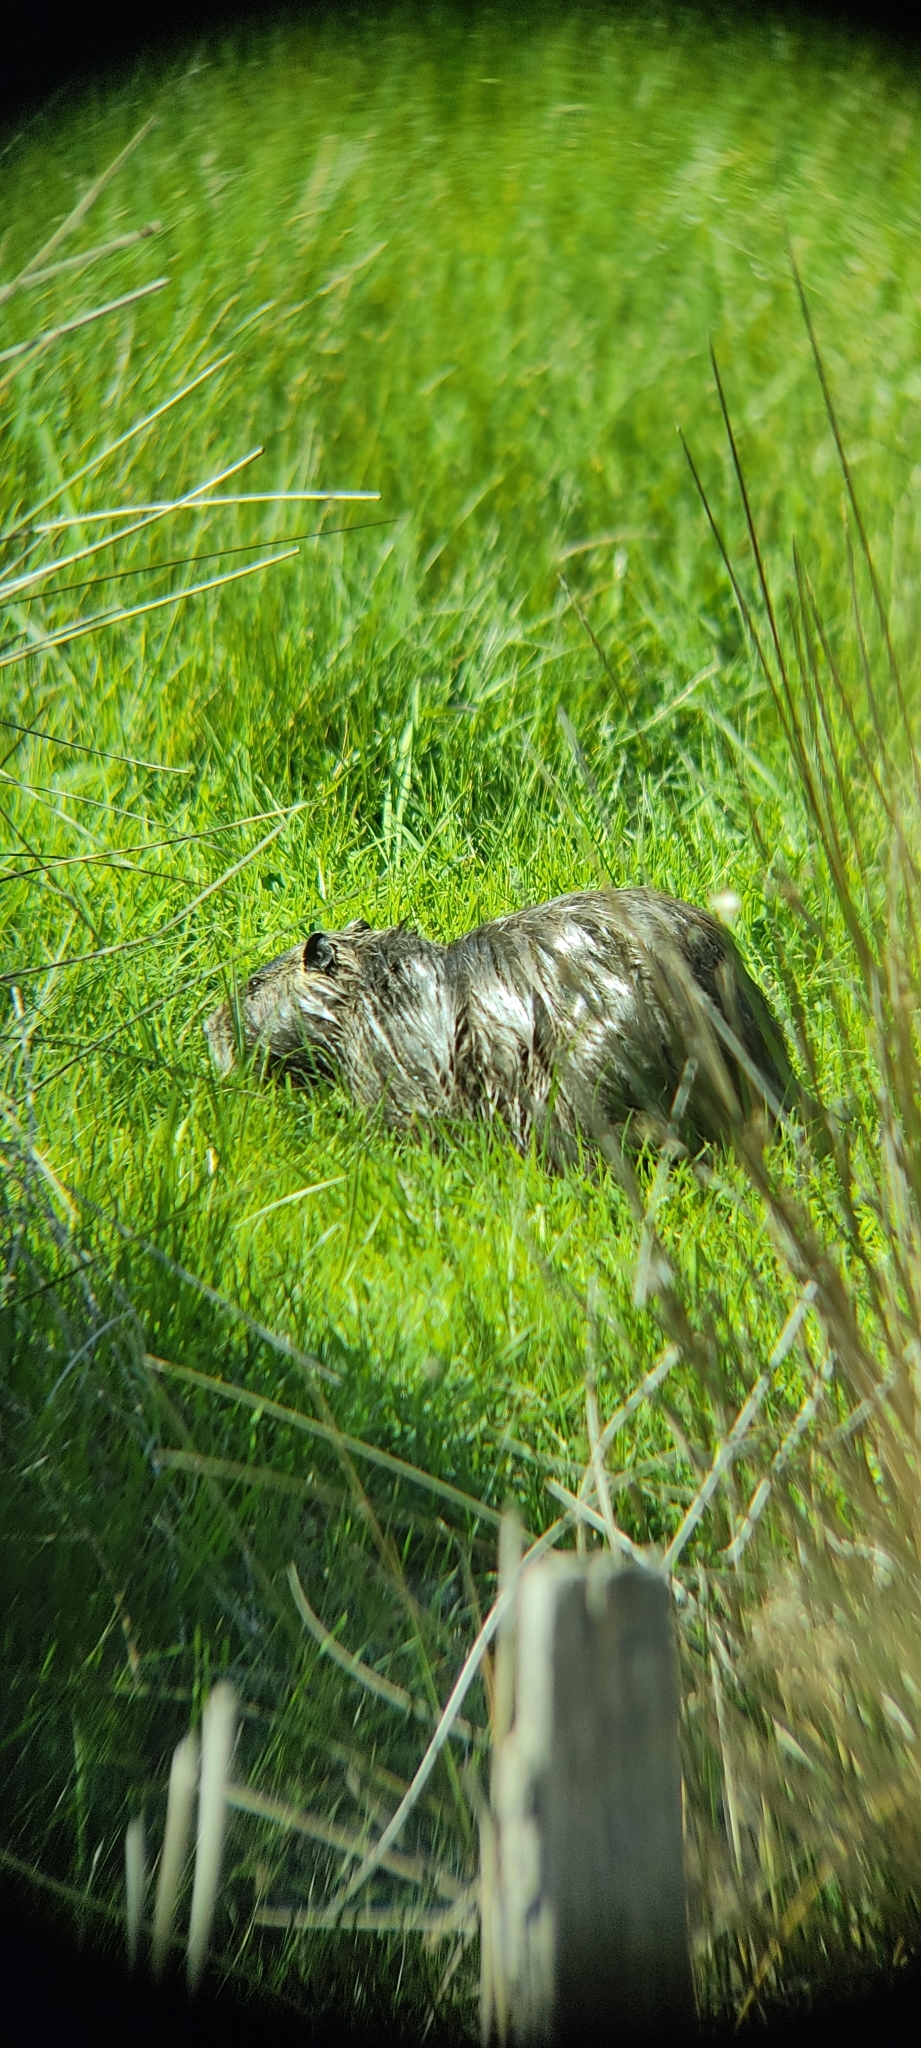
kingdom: Animalia
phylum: Chordata
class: Mammalia
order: Rodentia
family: Myocastoridae
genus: Myocastor
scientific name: Myocastor coypus
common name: Coypu
